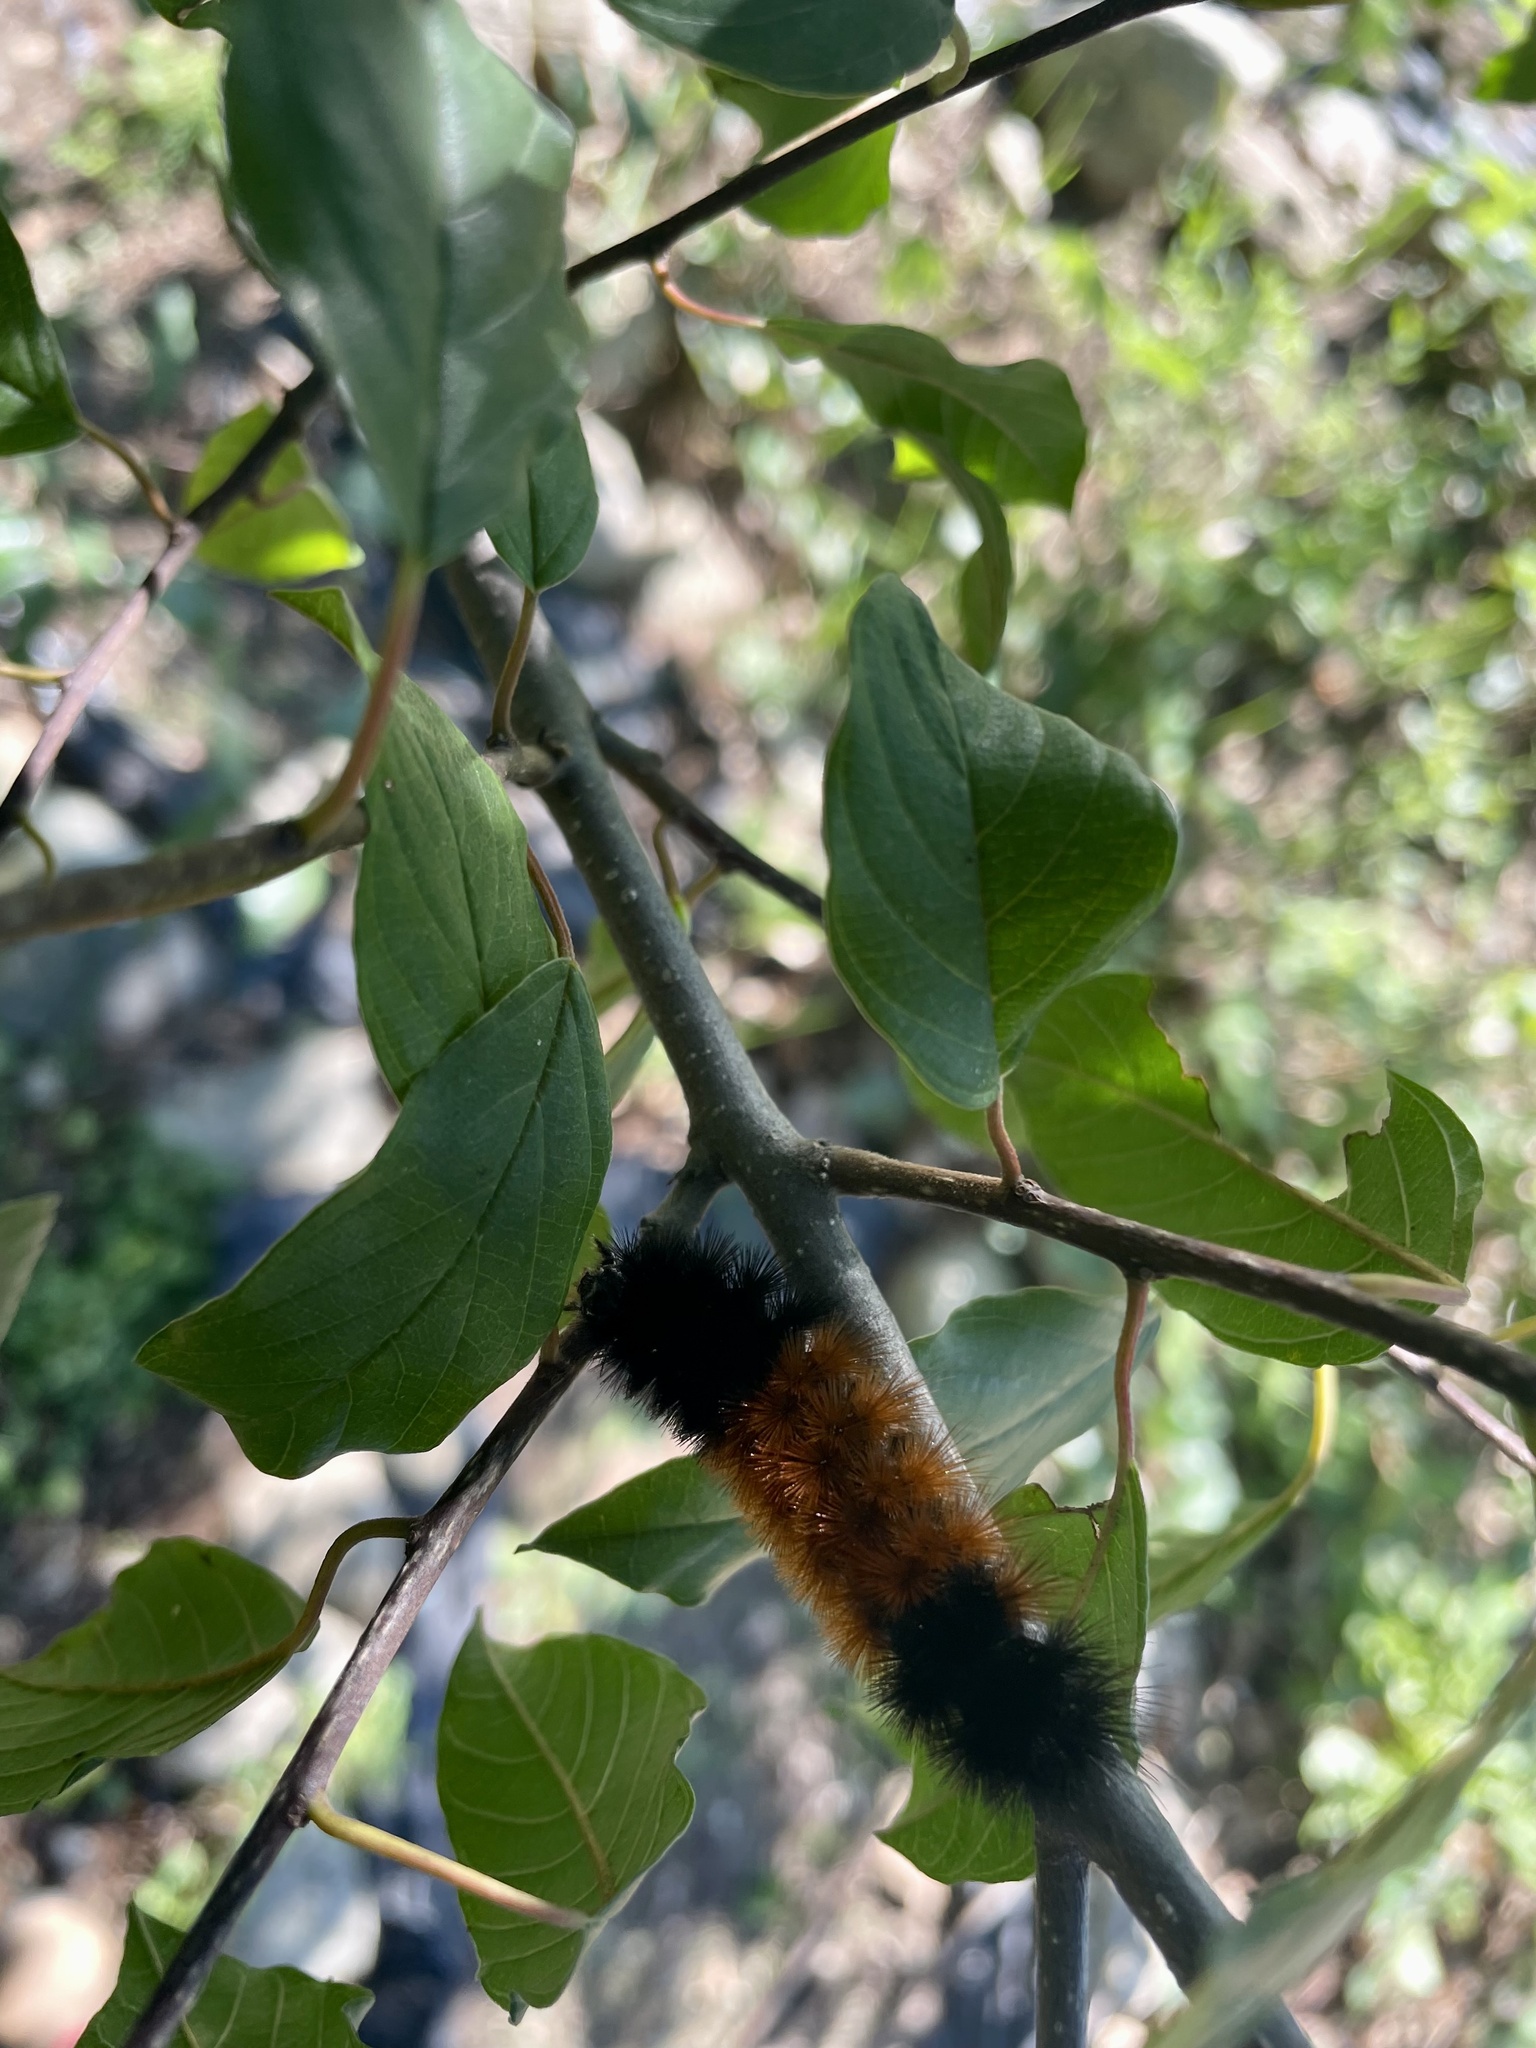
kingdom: Animalia
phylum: Arthropoda
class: Insecta
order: Lepidoptera
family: Erebidae
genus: Pyrrharctia
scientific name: Pyrrharctia isabella
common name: Isabella tiger moth
